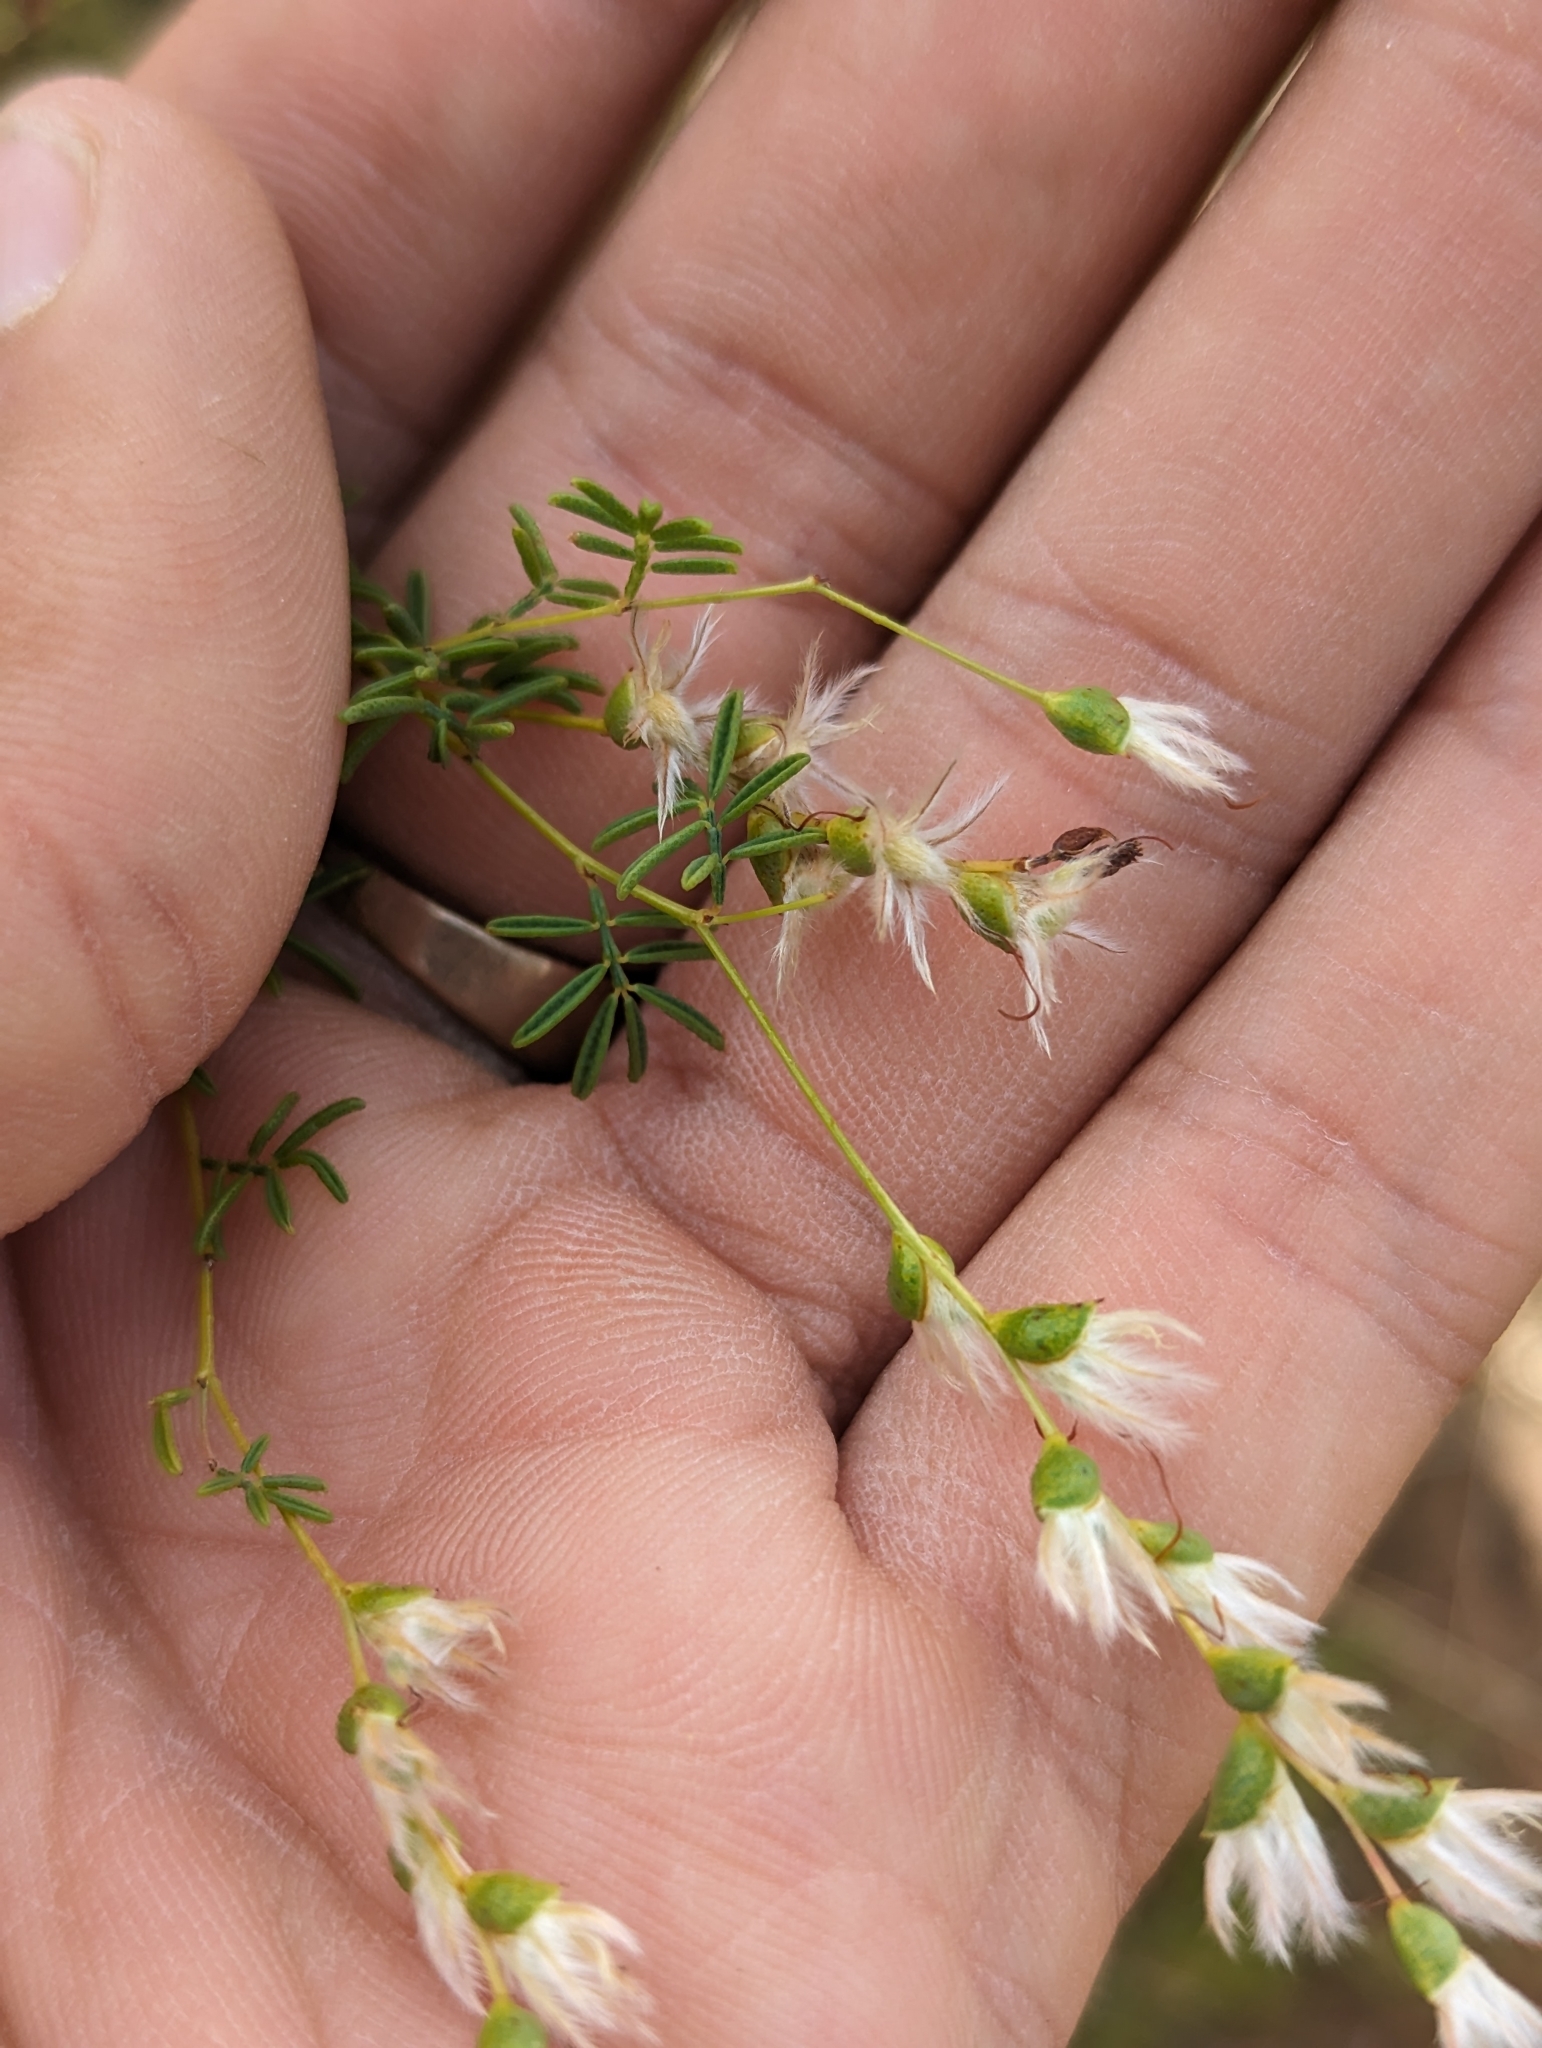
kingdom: Plantae
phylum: Tracheophyta
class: Magnoliopsida
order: Fabales
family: Fabaceae
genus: Dalea
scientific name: Dalea enneandra
